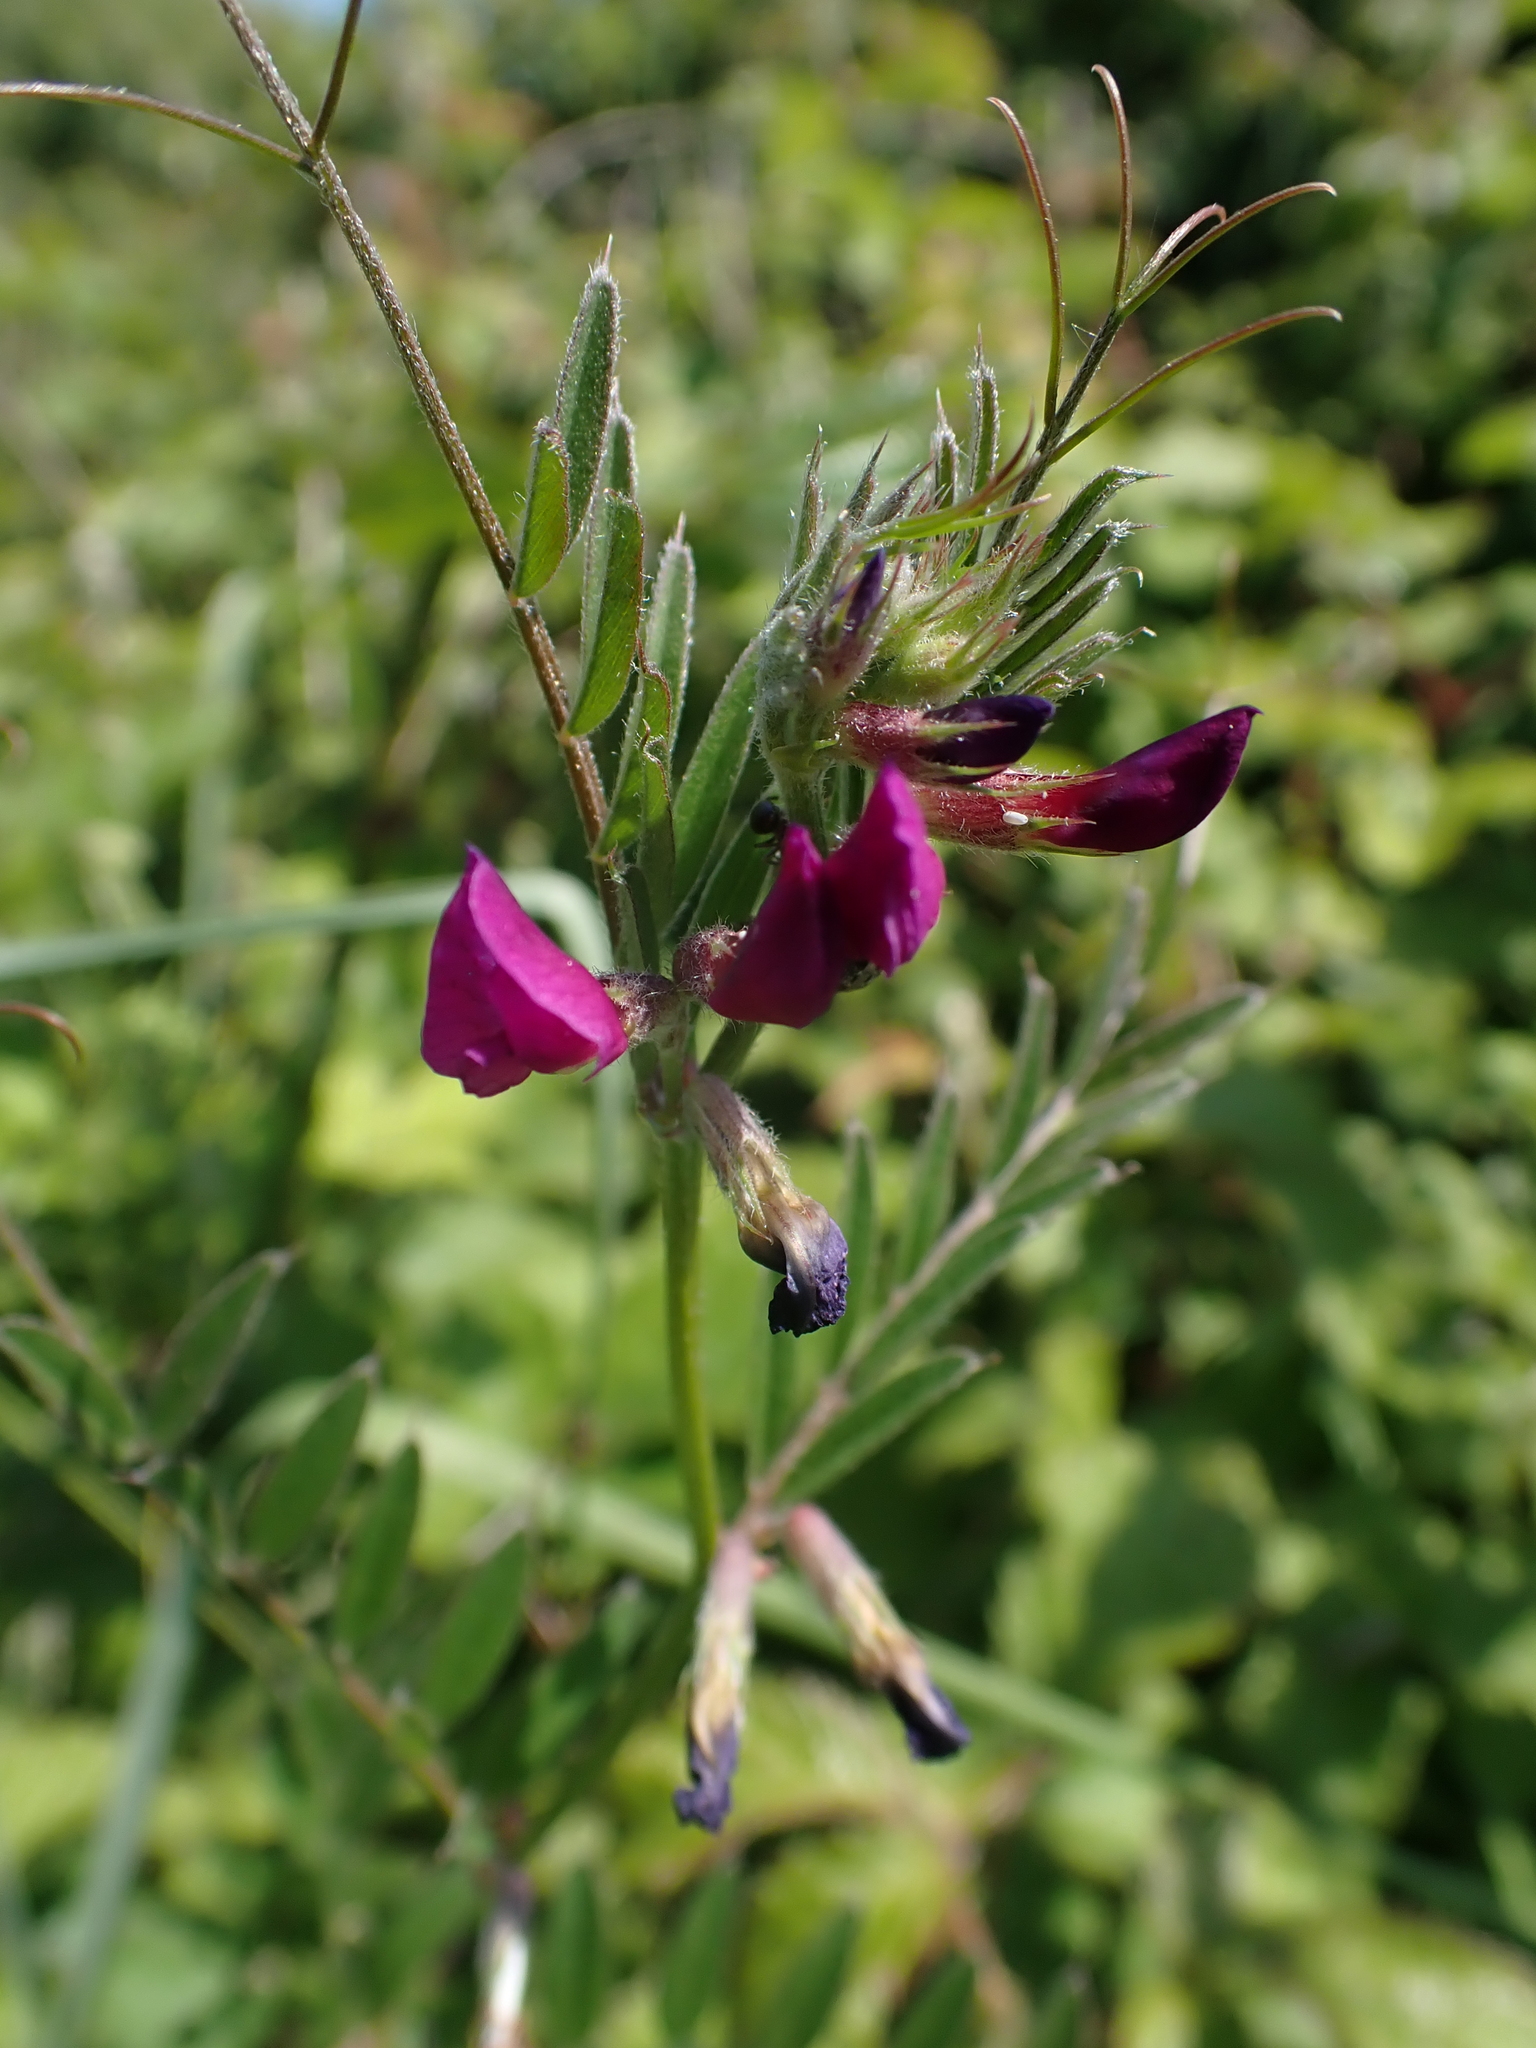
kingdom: Plantae
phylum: Tracheophyta
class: Magnoliopsida
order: Fabales
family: Fabaceae
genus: Vicia
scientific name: Vicia sativa
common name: Garden vetch
